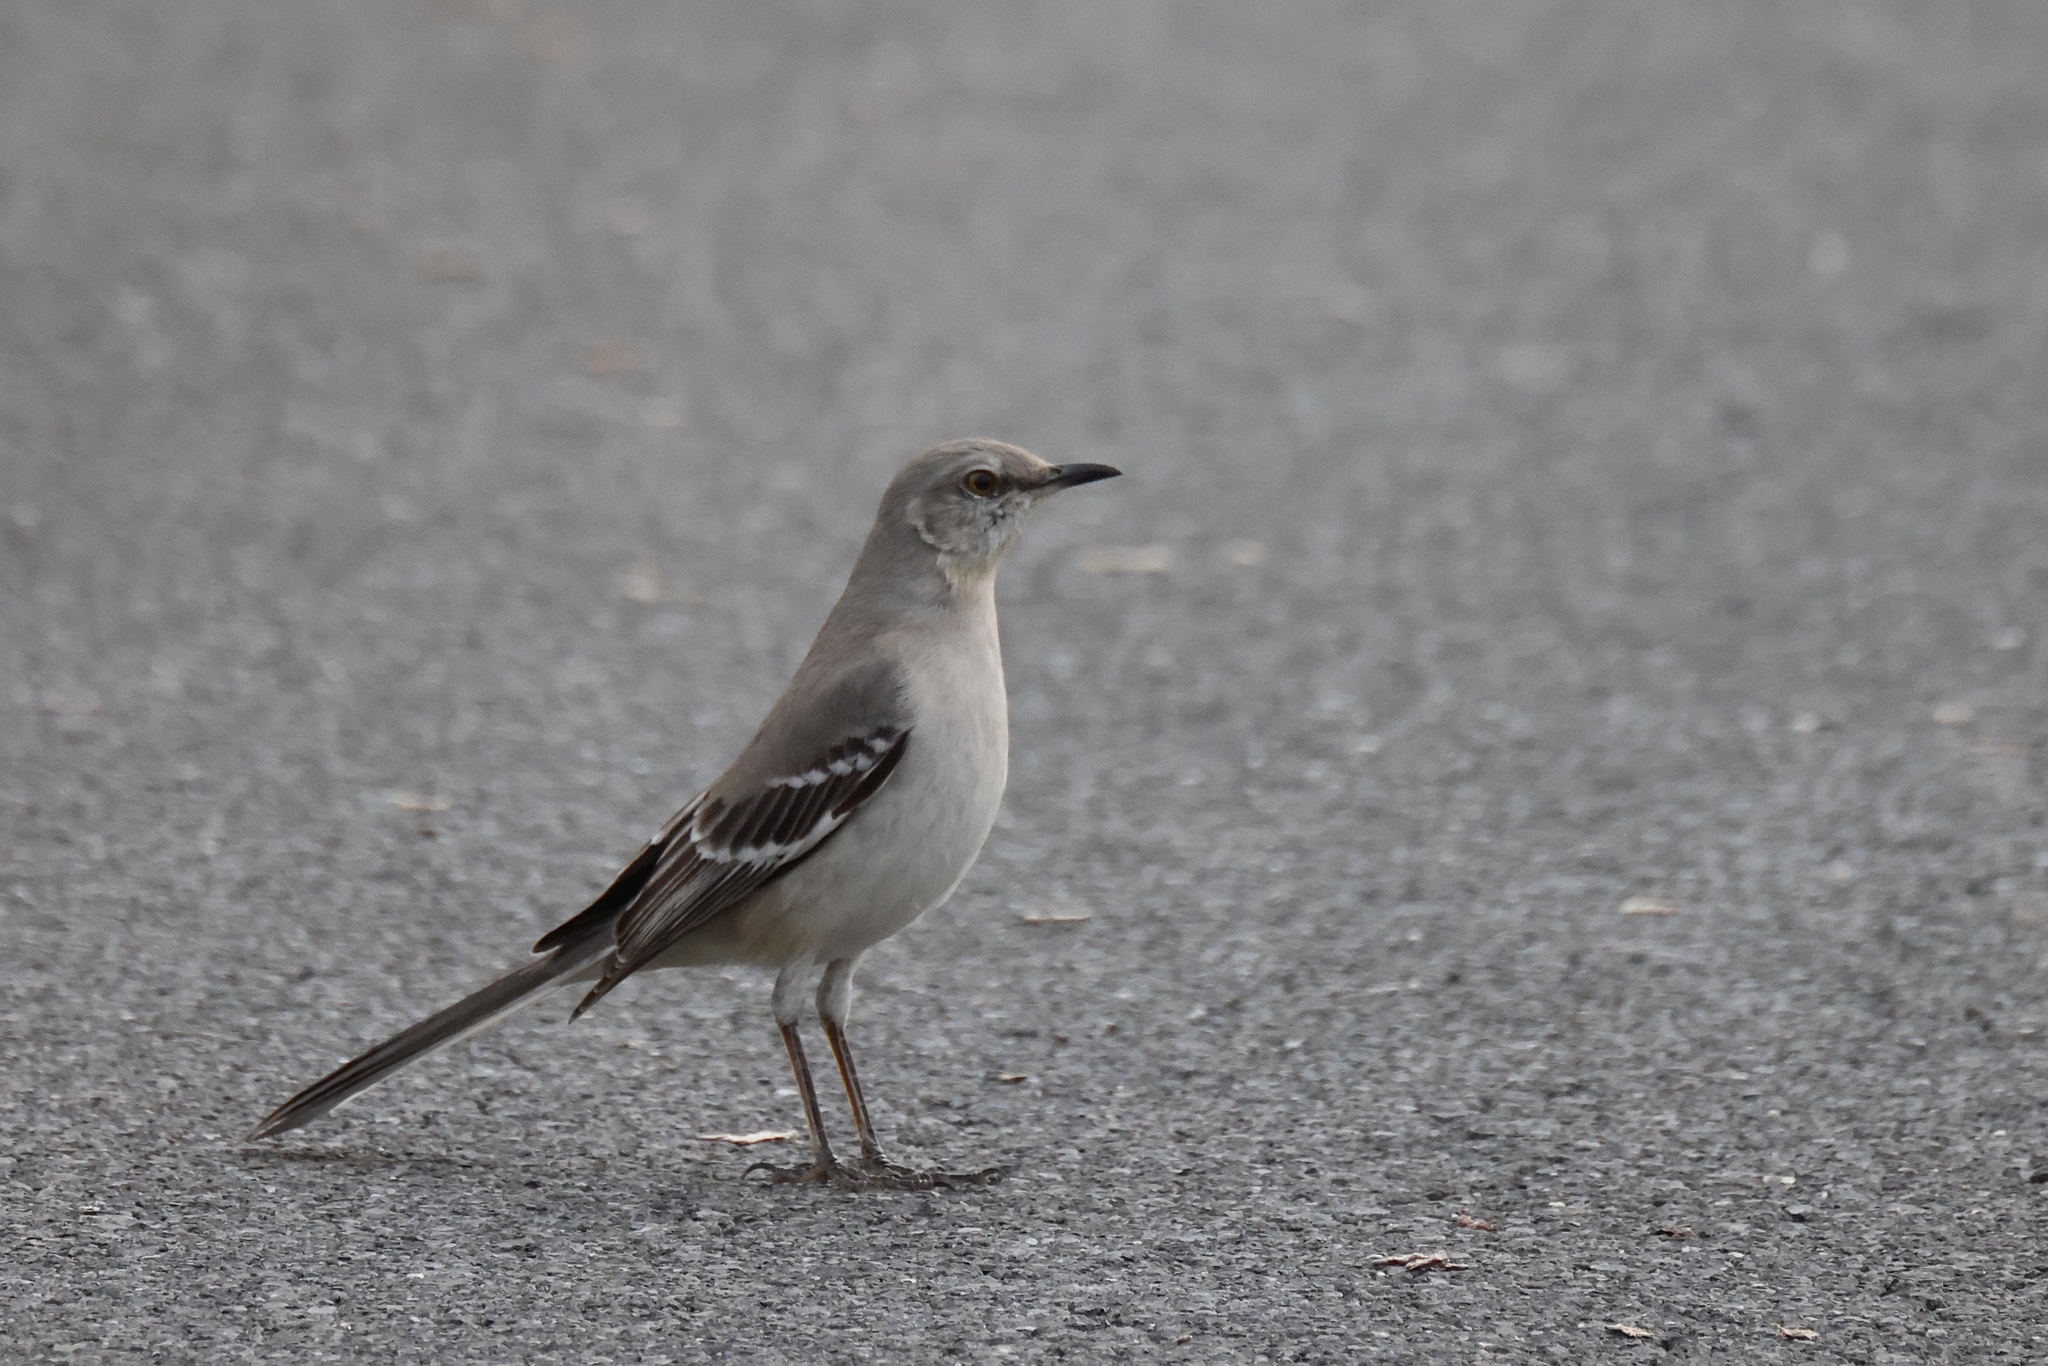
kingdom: Animalia
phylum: Chordata
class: Aves
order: Passeriformes
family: Mimidae
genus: Mimus
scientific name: Mimus polyglottos
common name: Northern mockingbird
